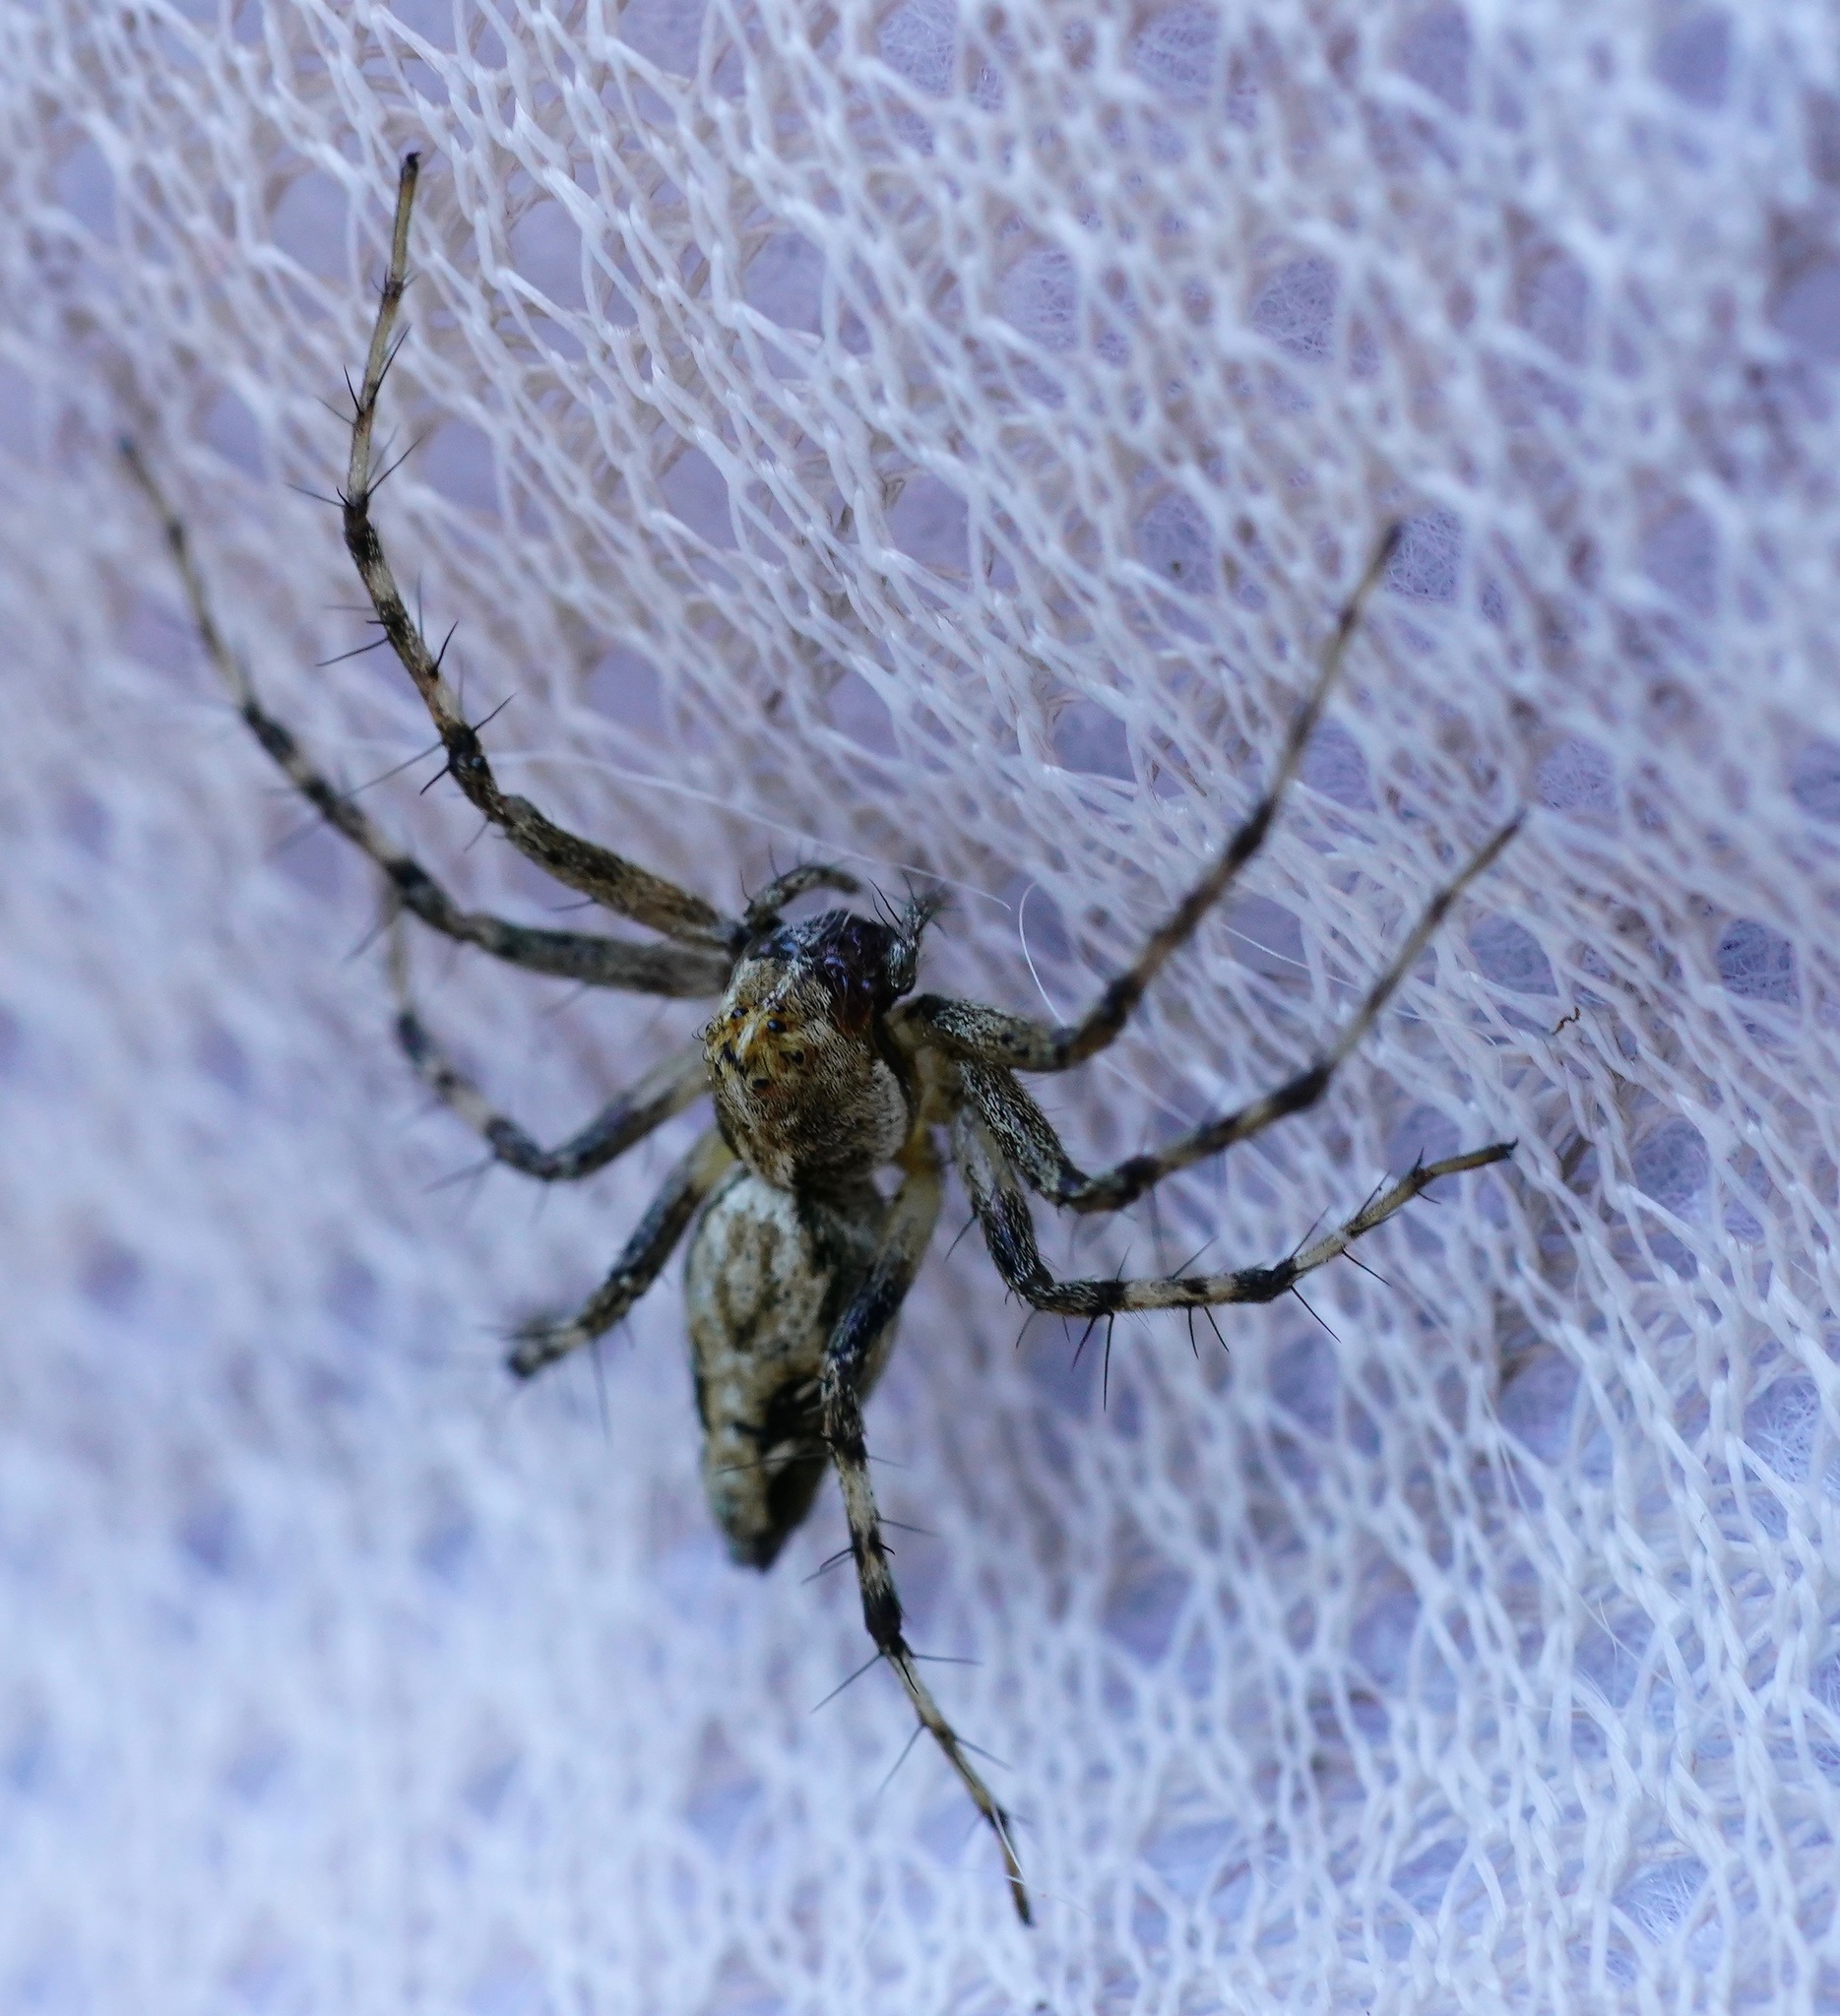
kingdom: Animalia
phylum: Arthropoda
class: Arachnida
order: Araneae
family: Oxyopidae
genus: Oxyopes
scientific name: Oxyopes scalaris
